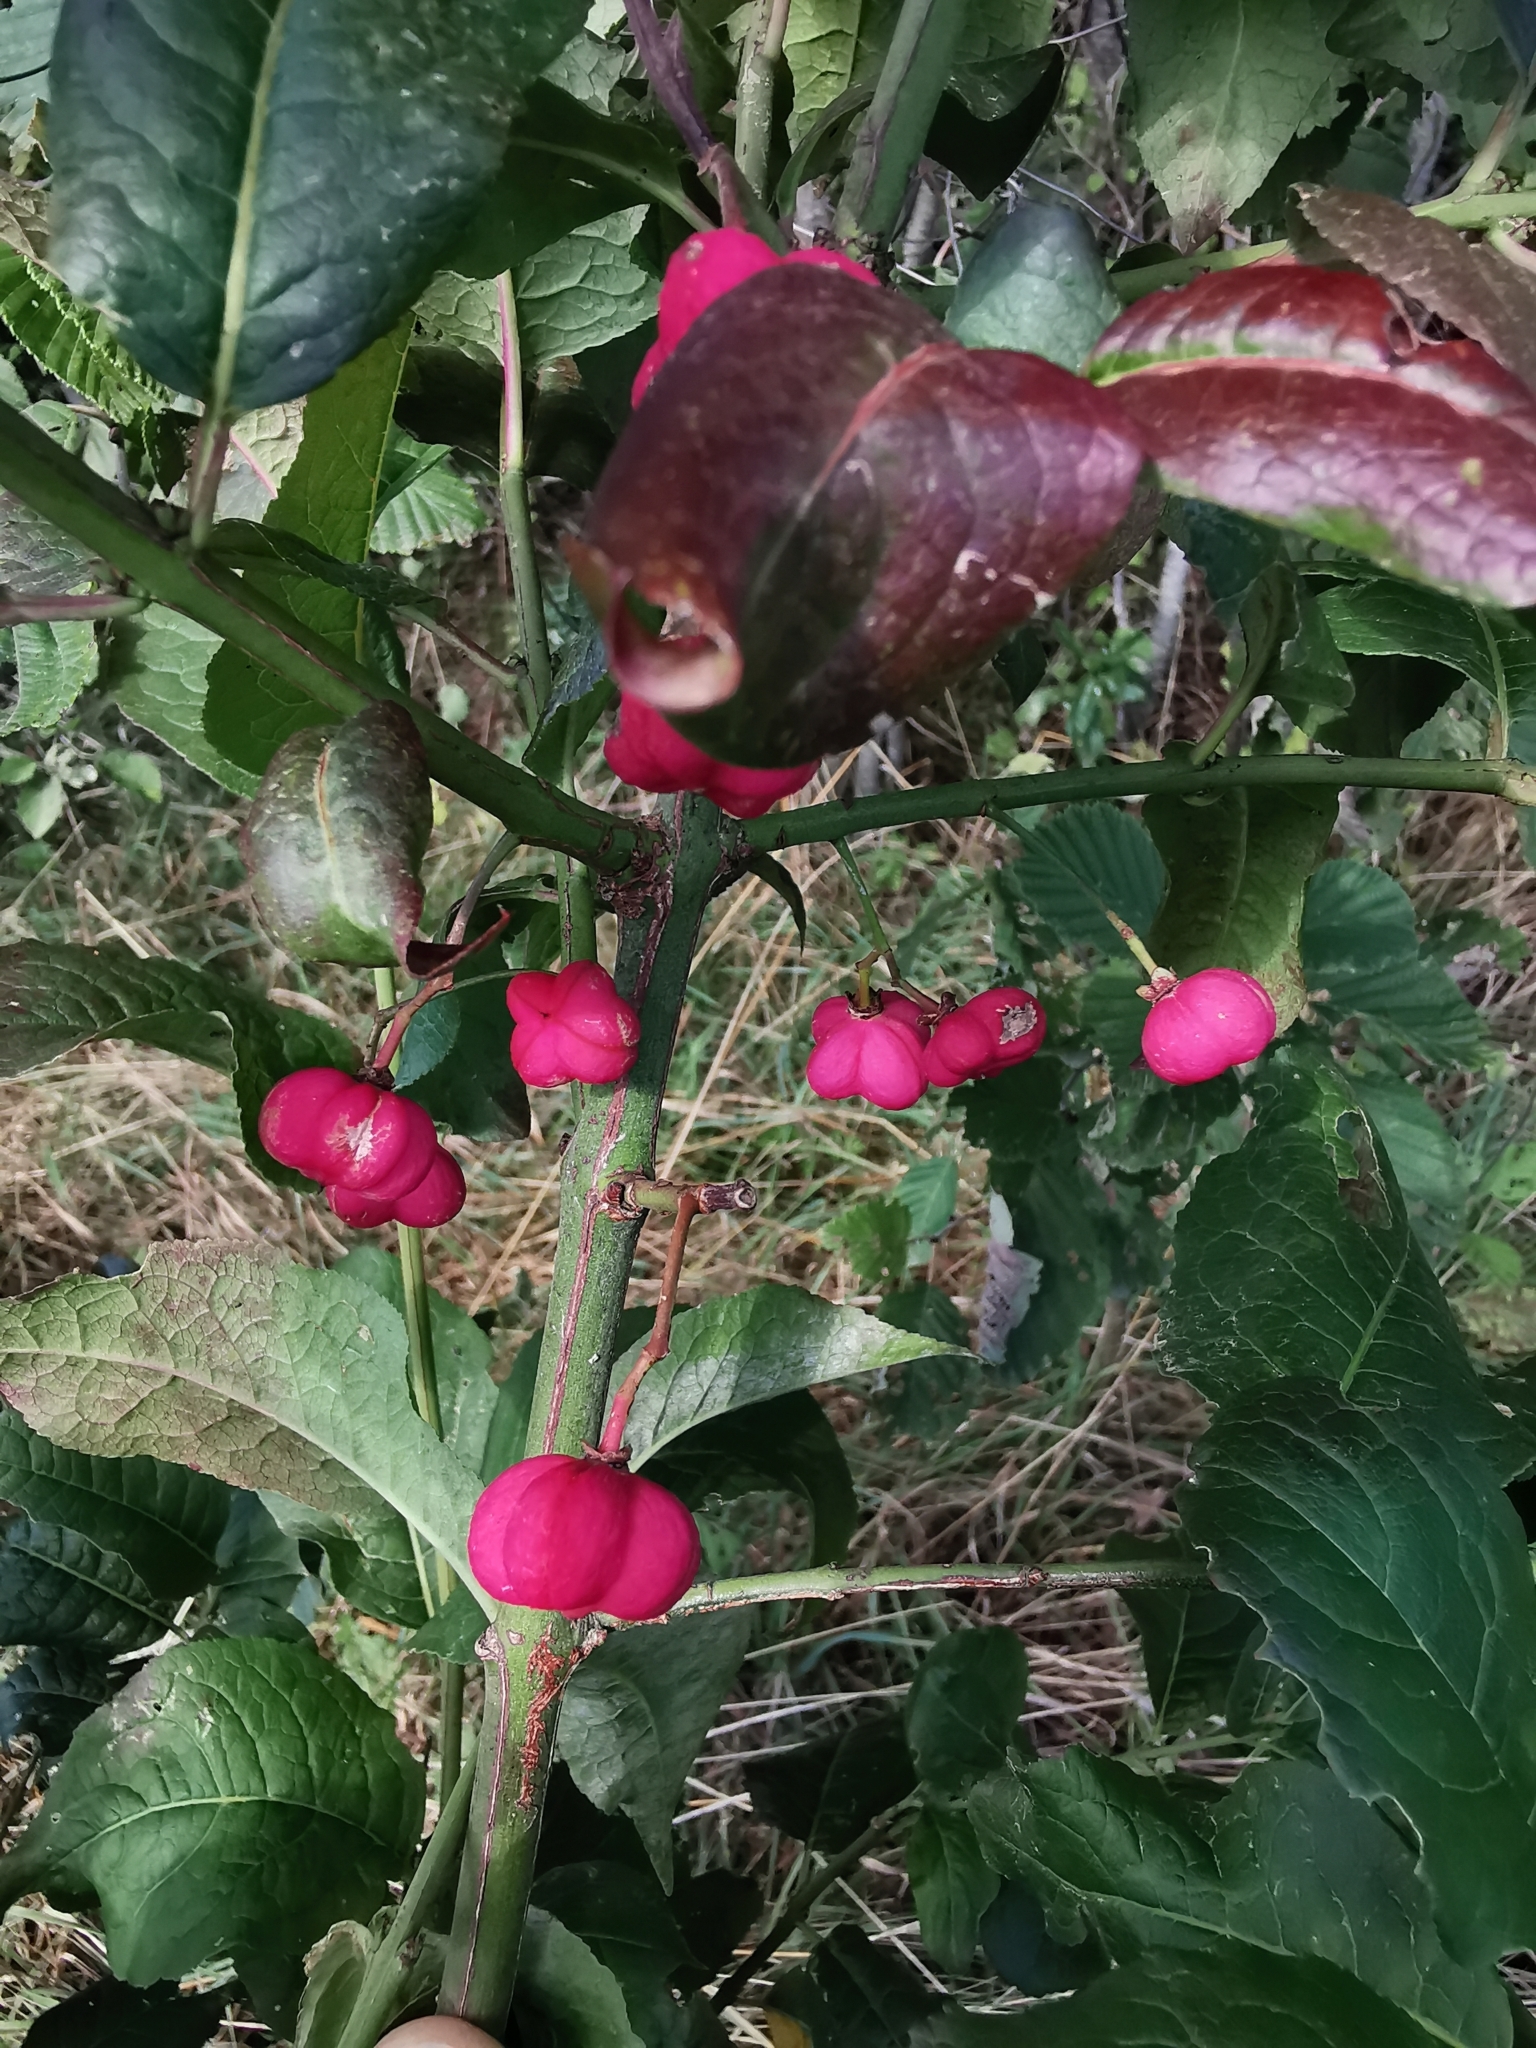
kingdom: Plantae
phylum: Tracheophyta
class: Magnoliopsida
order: Celastrales
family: Celastraceae
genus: Euonymus
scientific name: Euonymus europaeus
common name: Spindle
